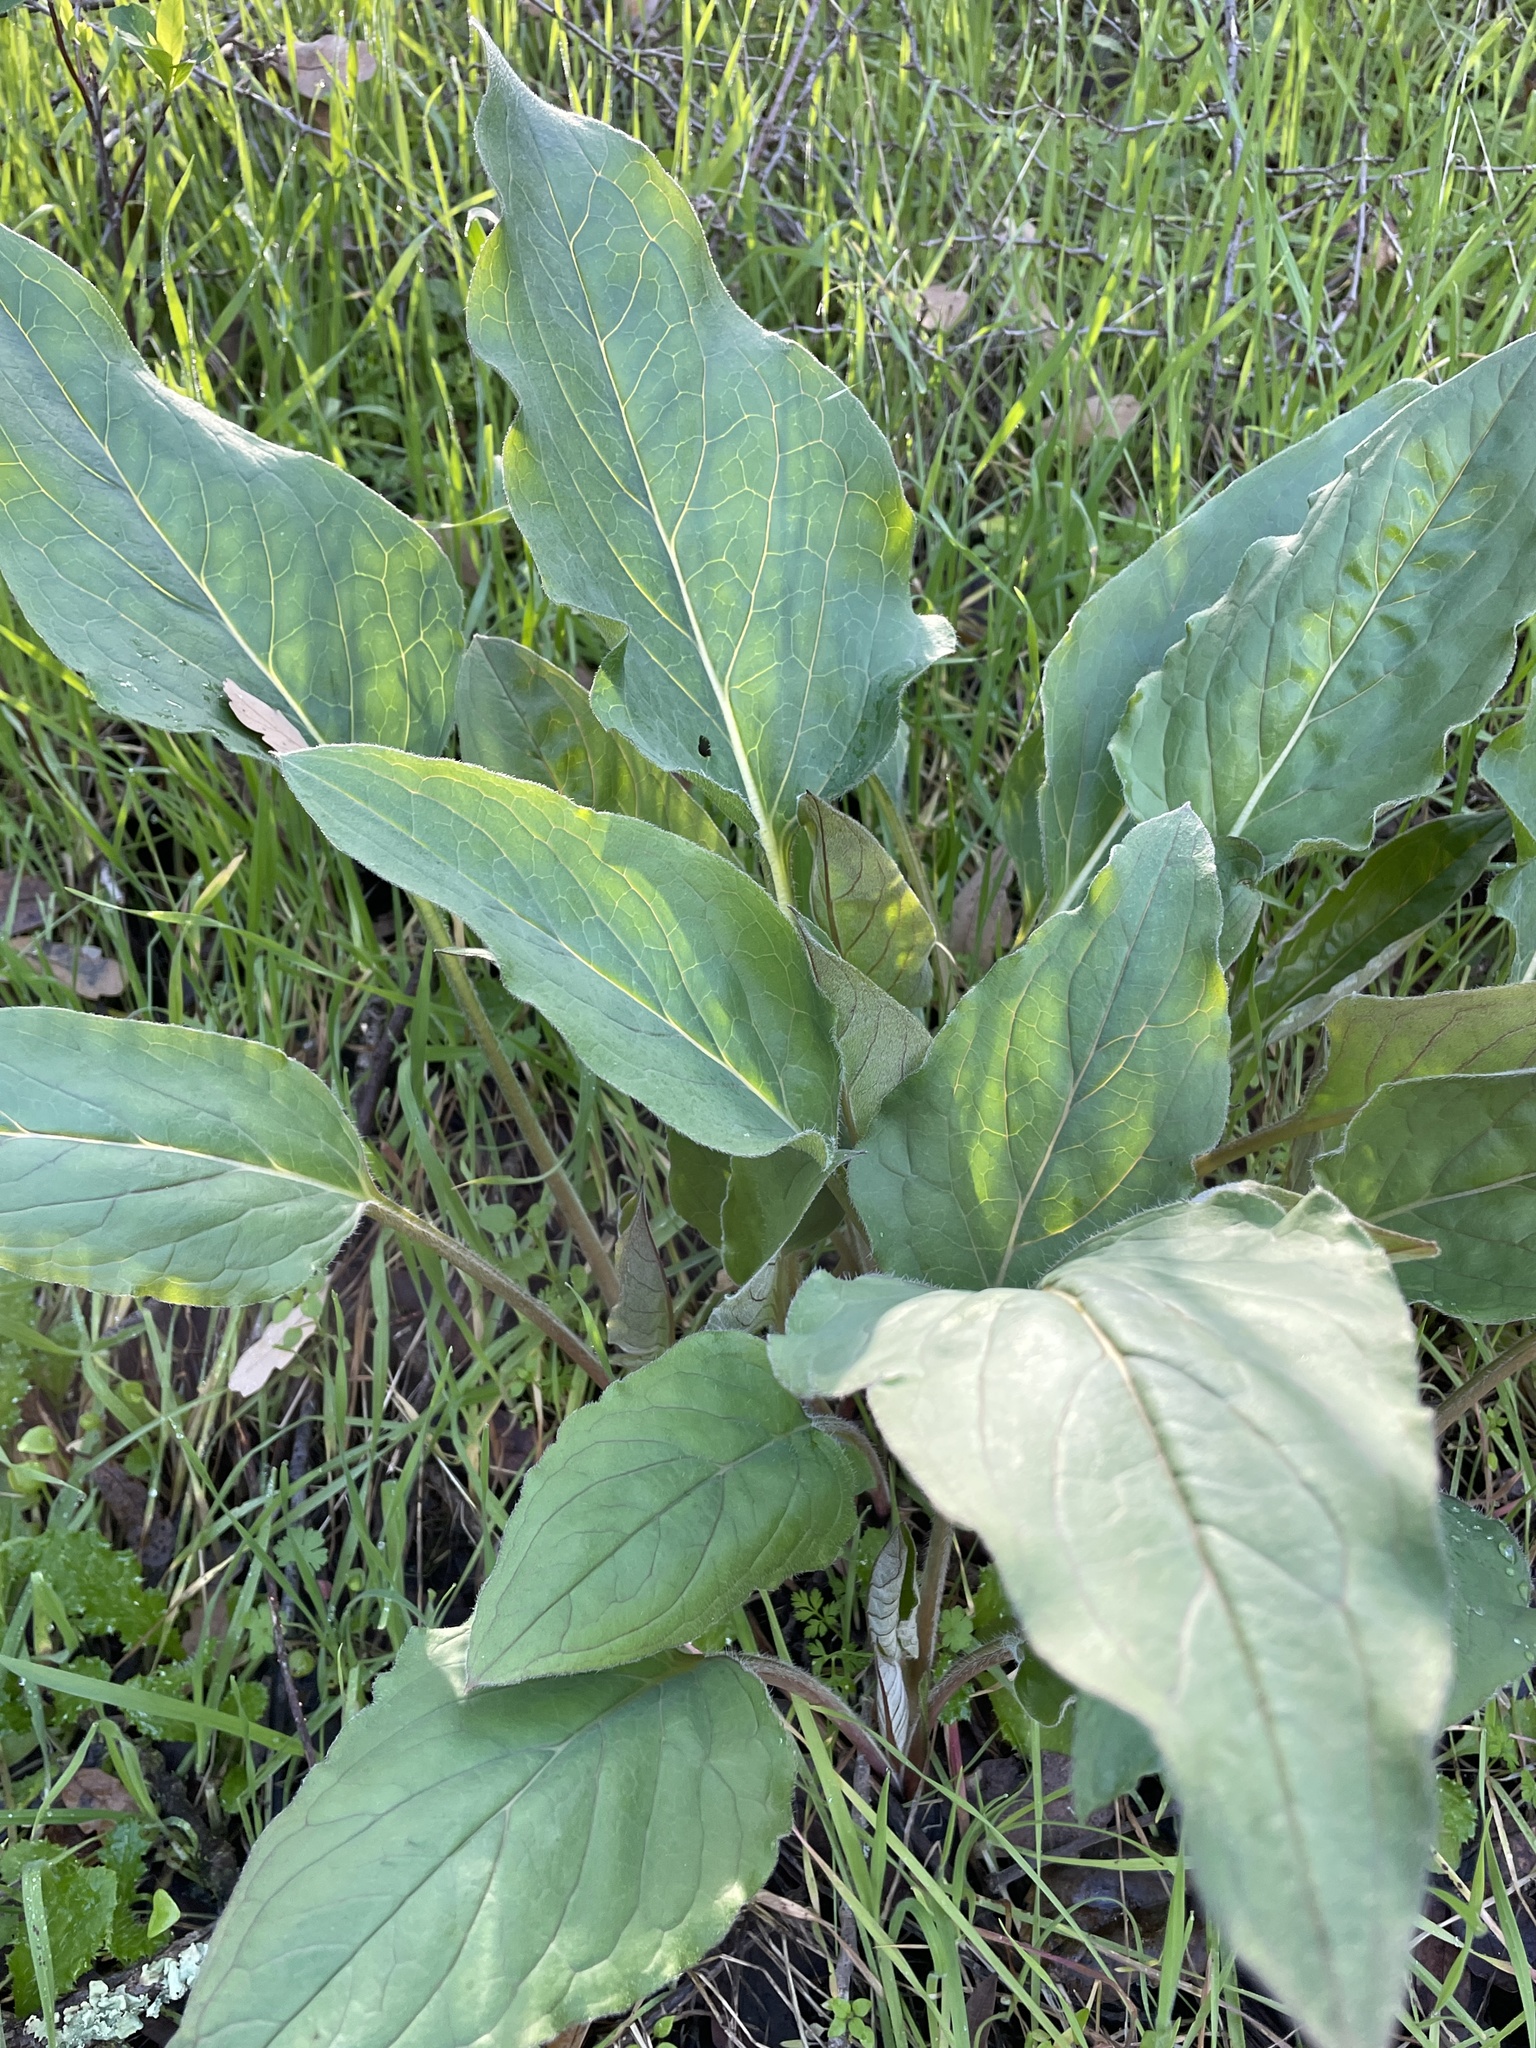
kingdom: Plantae
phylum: Tracheophyta
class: Magnoliopsida
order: Boraginales
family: Boraginaceae
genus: Adelinia
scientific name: Adelinia grande
